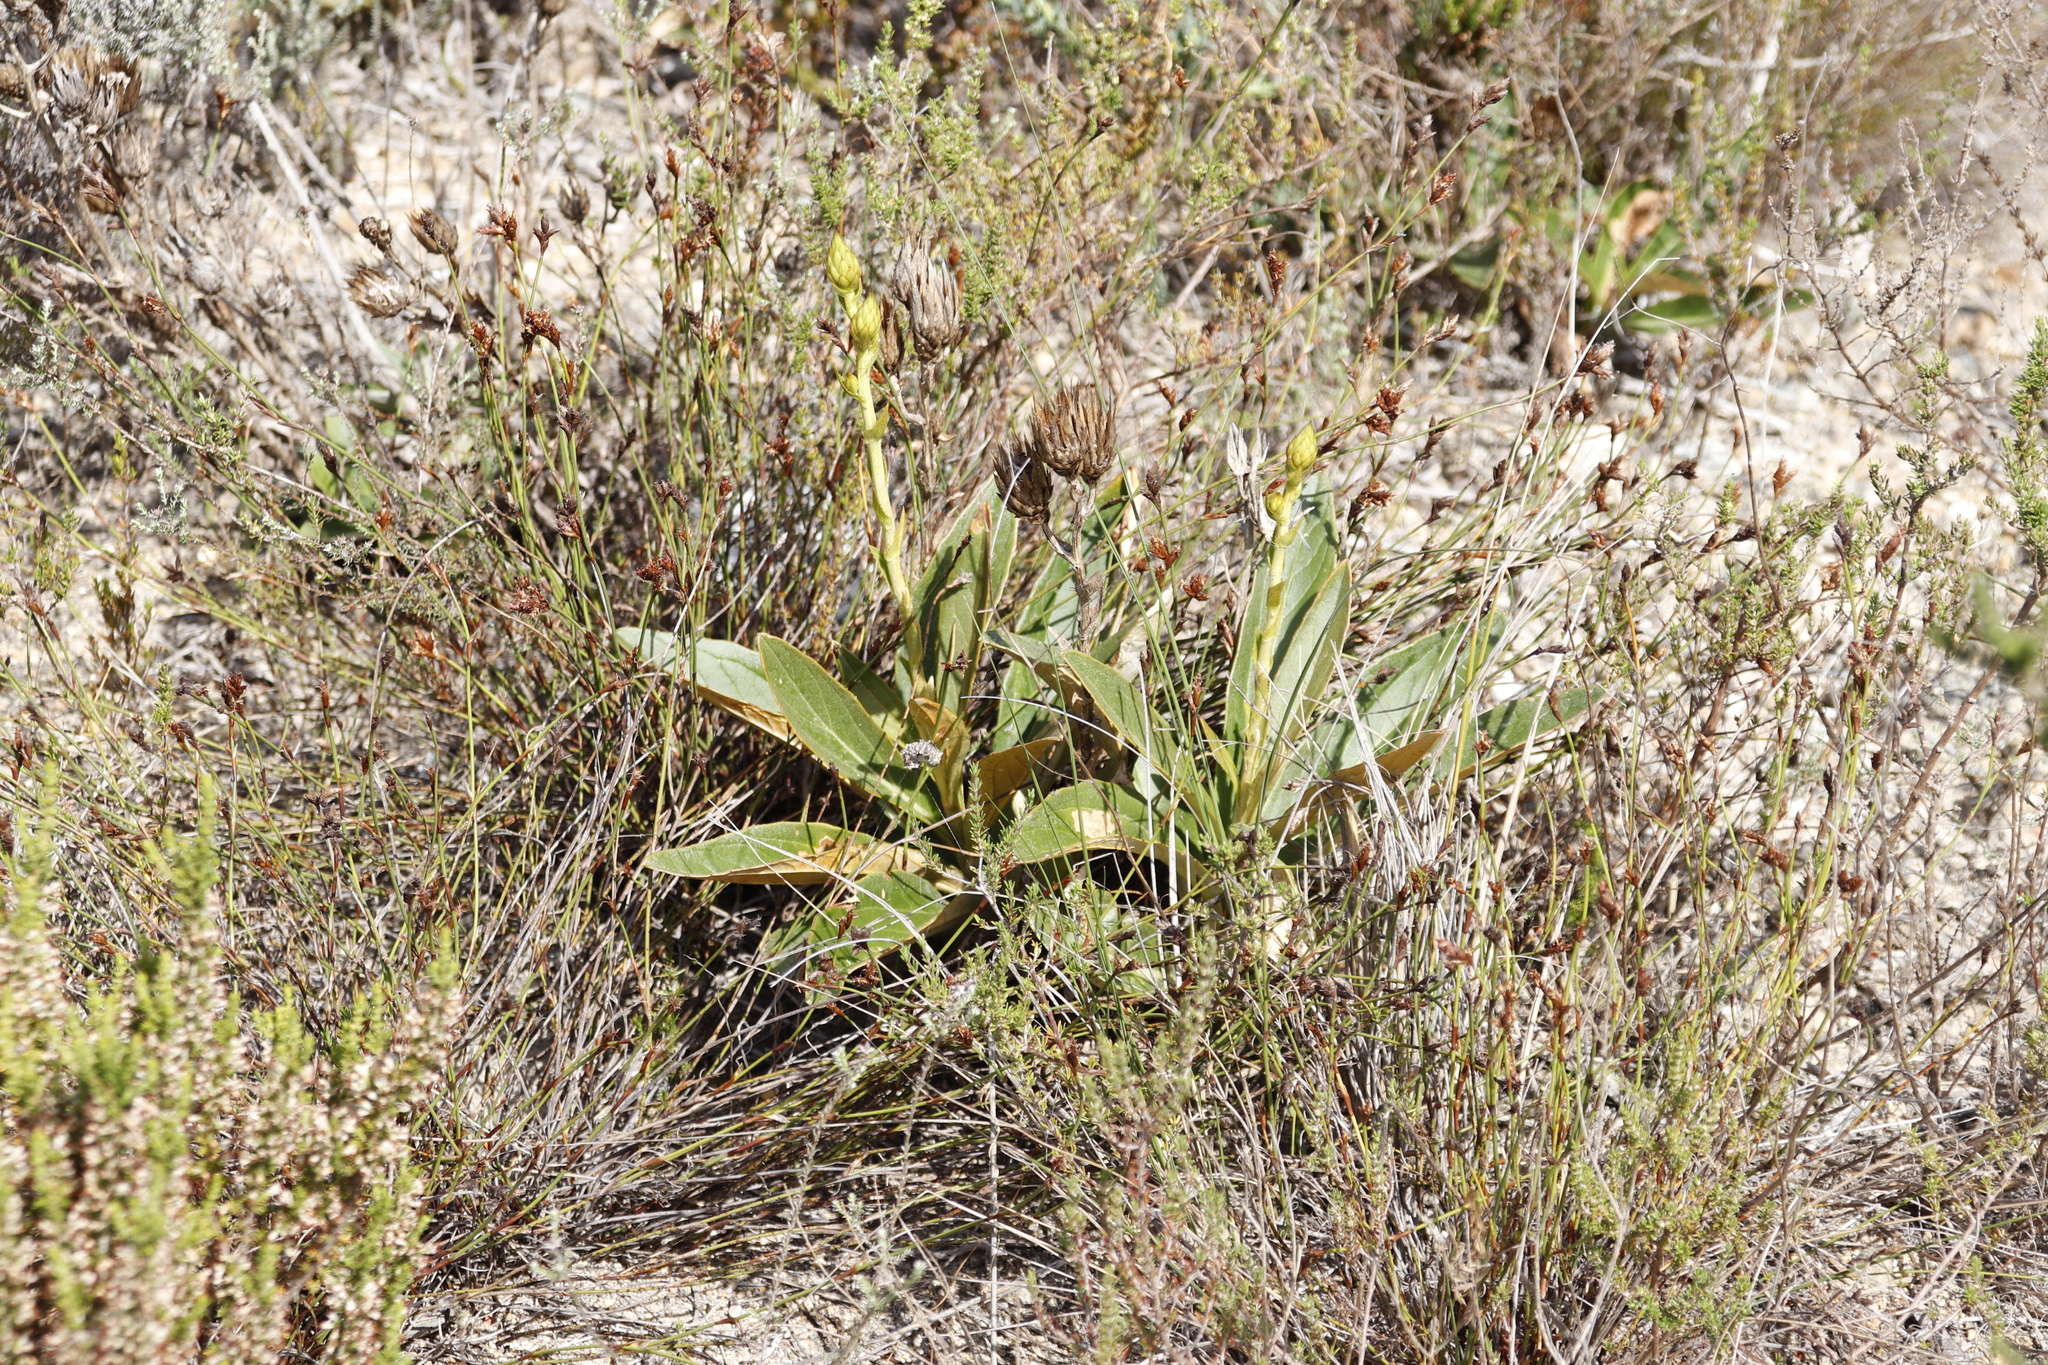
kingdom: Plantae
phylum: Tracheophyta
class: Magnoliopsida
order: Asterales
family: Asteraceae
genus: Berkheya
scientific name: Berkheya herbacea
